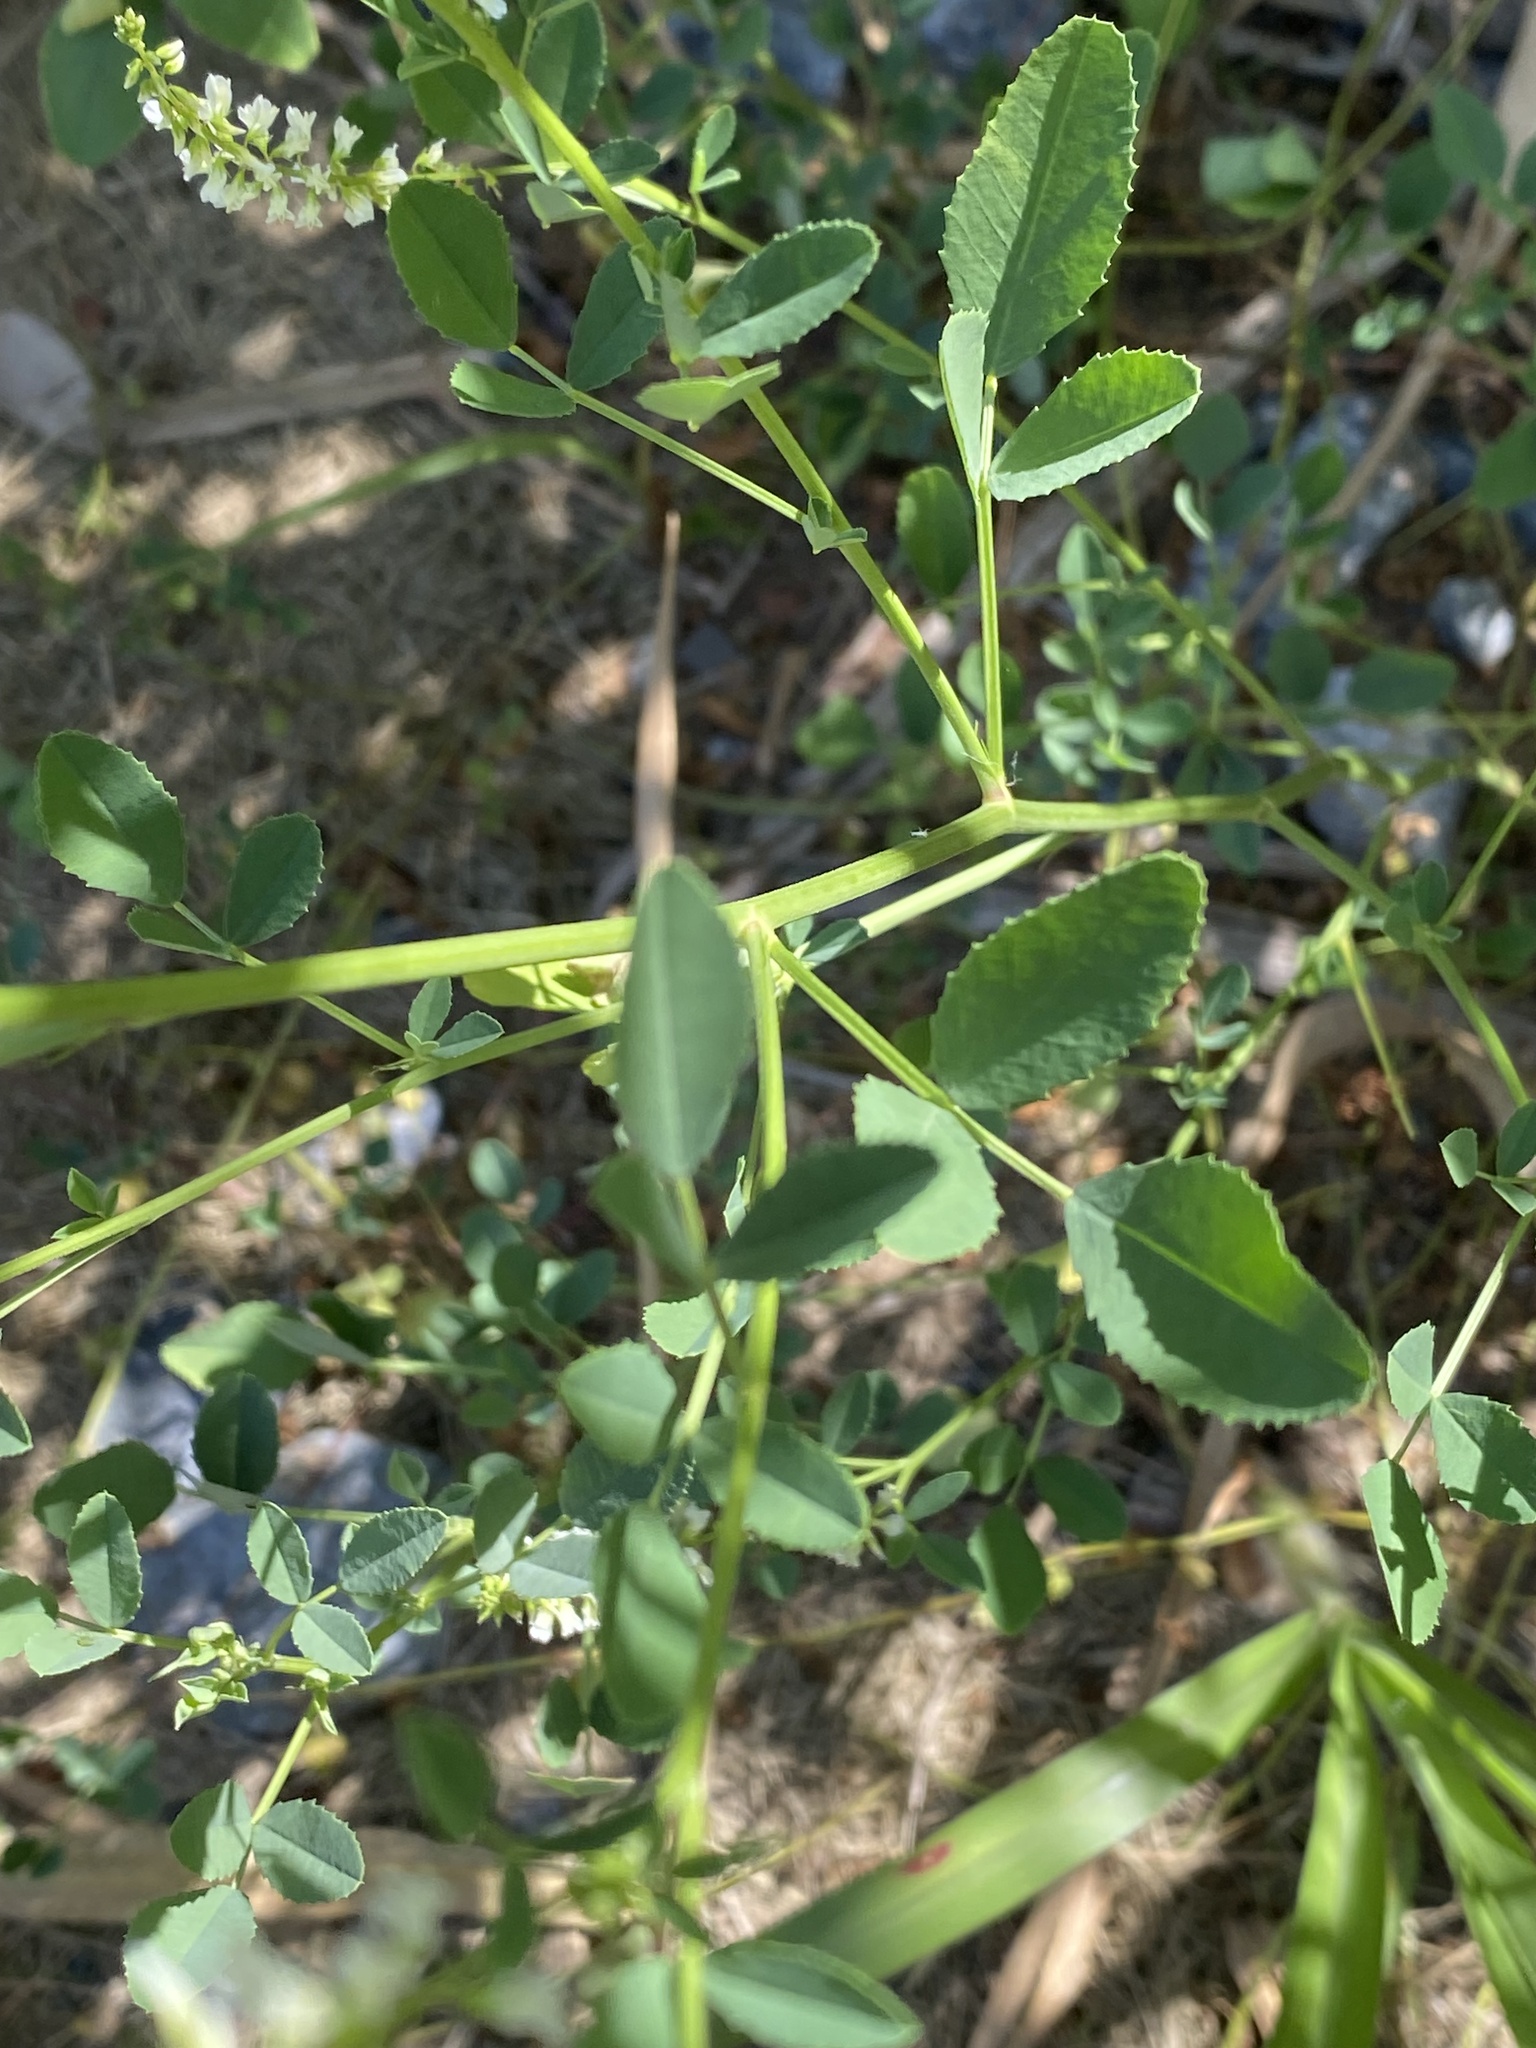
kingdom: Plantae
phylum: Tracheophyta
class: Magnoliopsida
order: Fabales
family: Fabaceae
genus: Melilotus
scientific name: Melilotus albus
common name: White melilot
